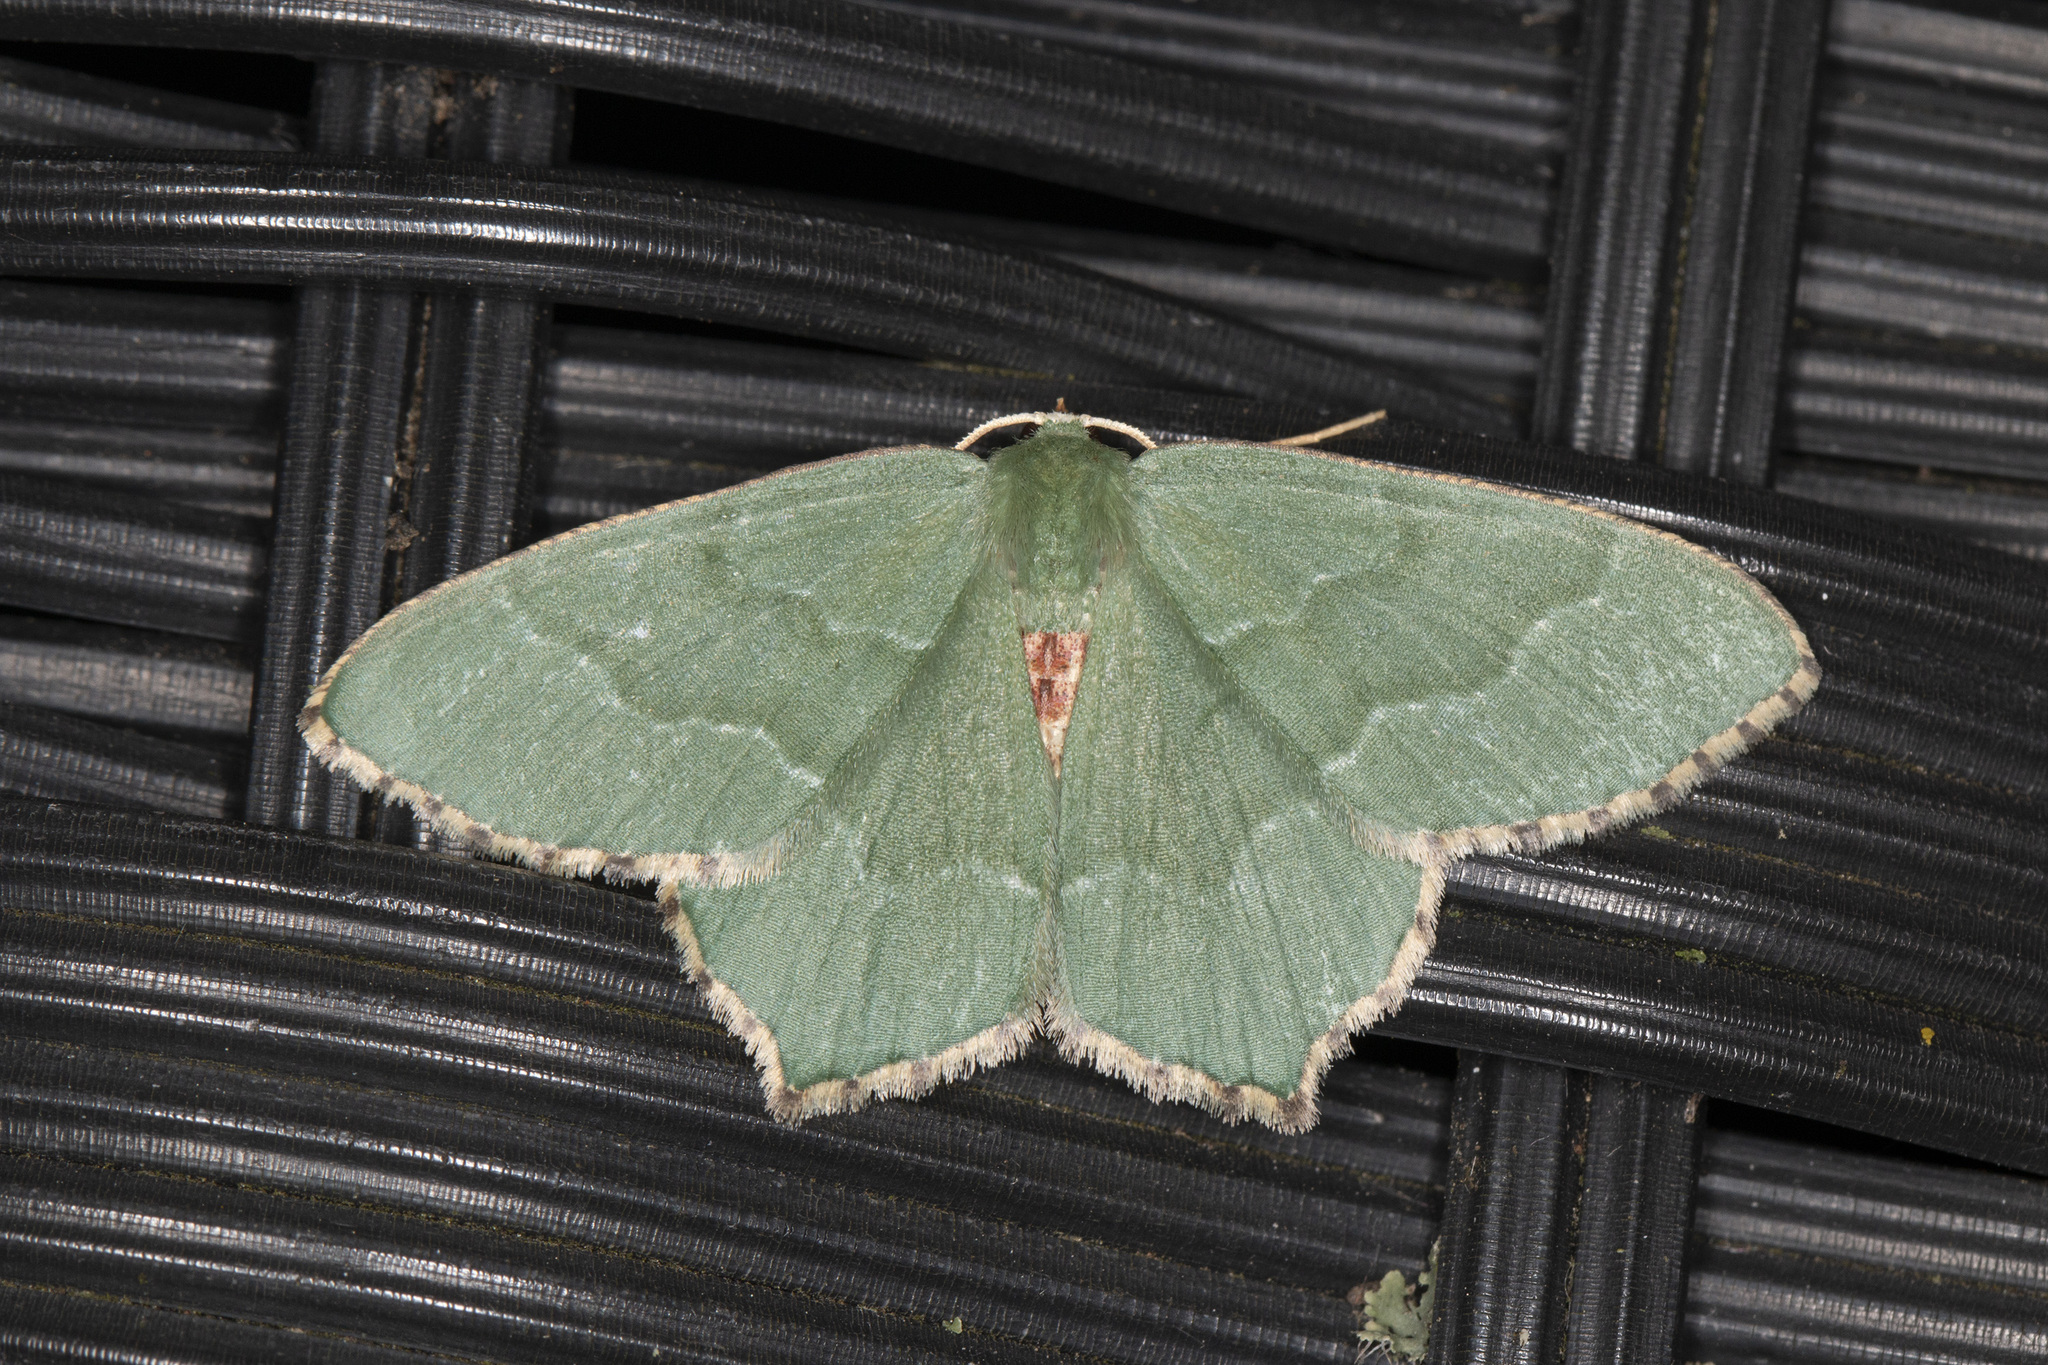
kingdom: Animalia
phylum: Arthropoda
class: Insecta
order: Lepidoptera
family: Geometridae
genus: Hemithea
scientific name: Hemithea aestivaria
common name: Common emerald
